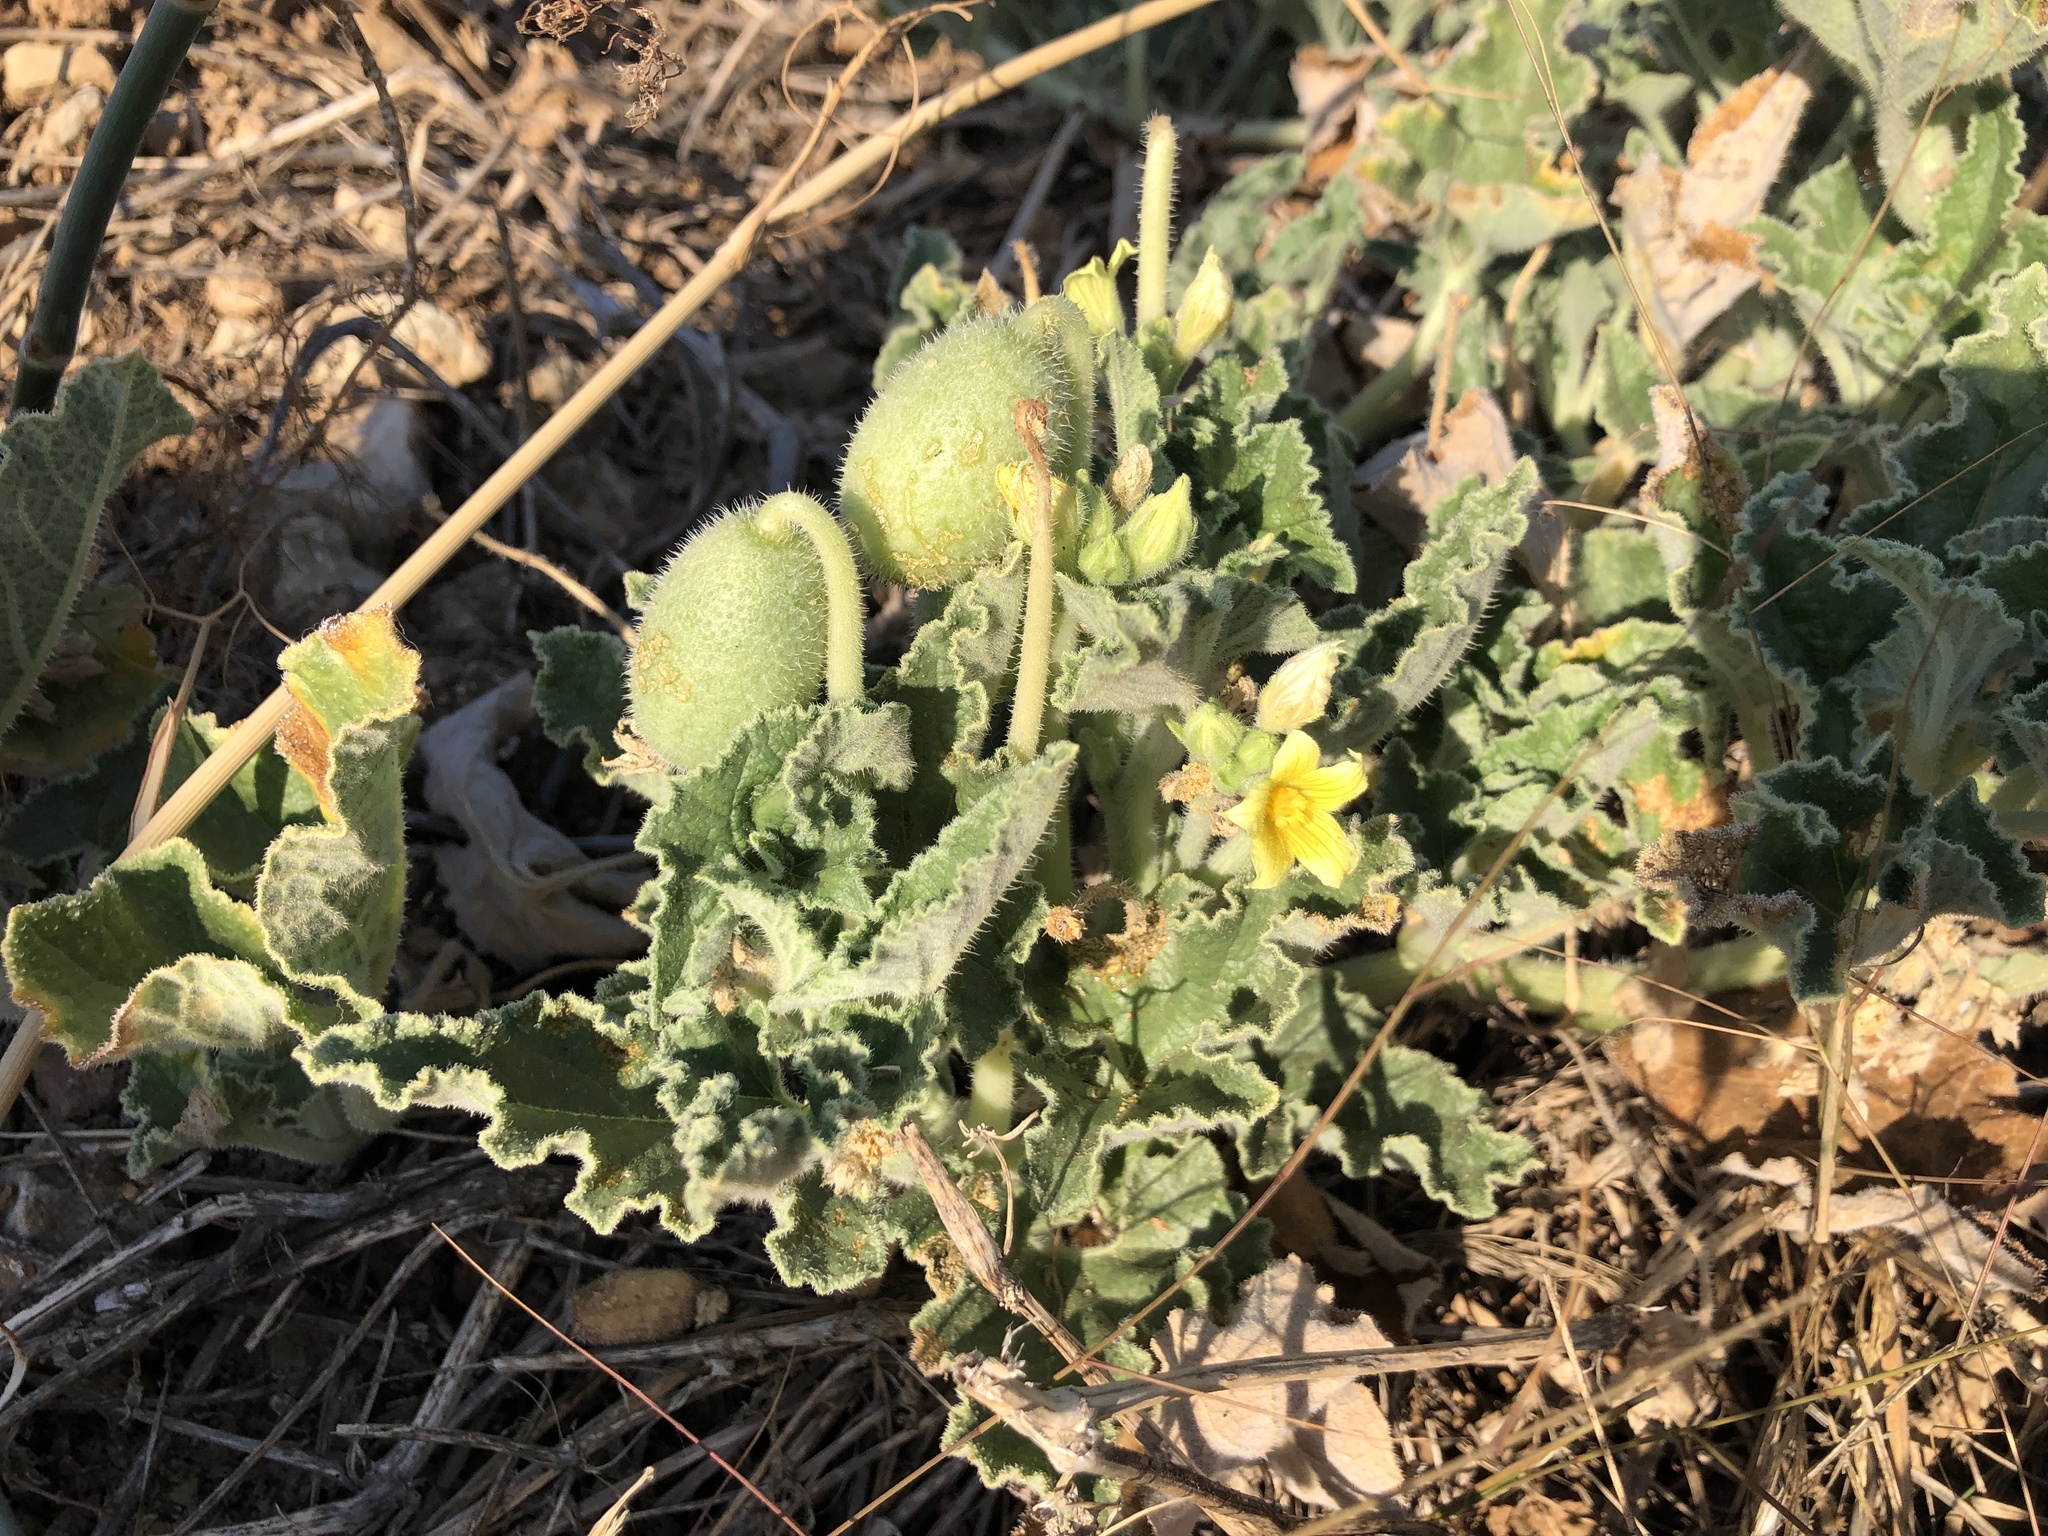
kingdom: Plantae
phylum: Tracheophyta
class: Magnoliopsida
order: Cucurbitales
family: Cucurbitaceae
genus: Ecballium
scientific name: Ecballium elaterium
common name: Squirting cucumber
